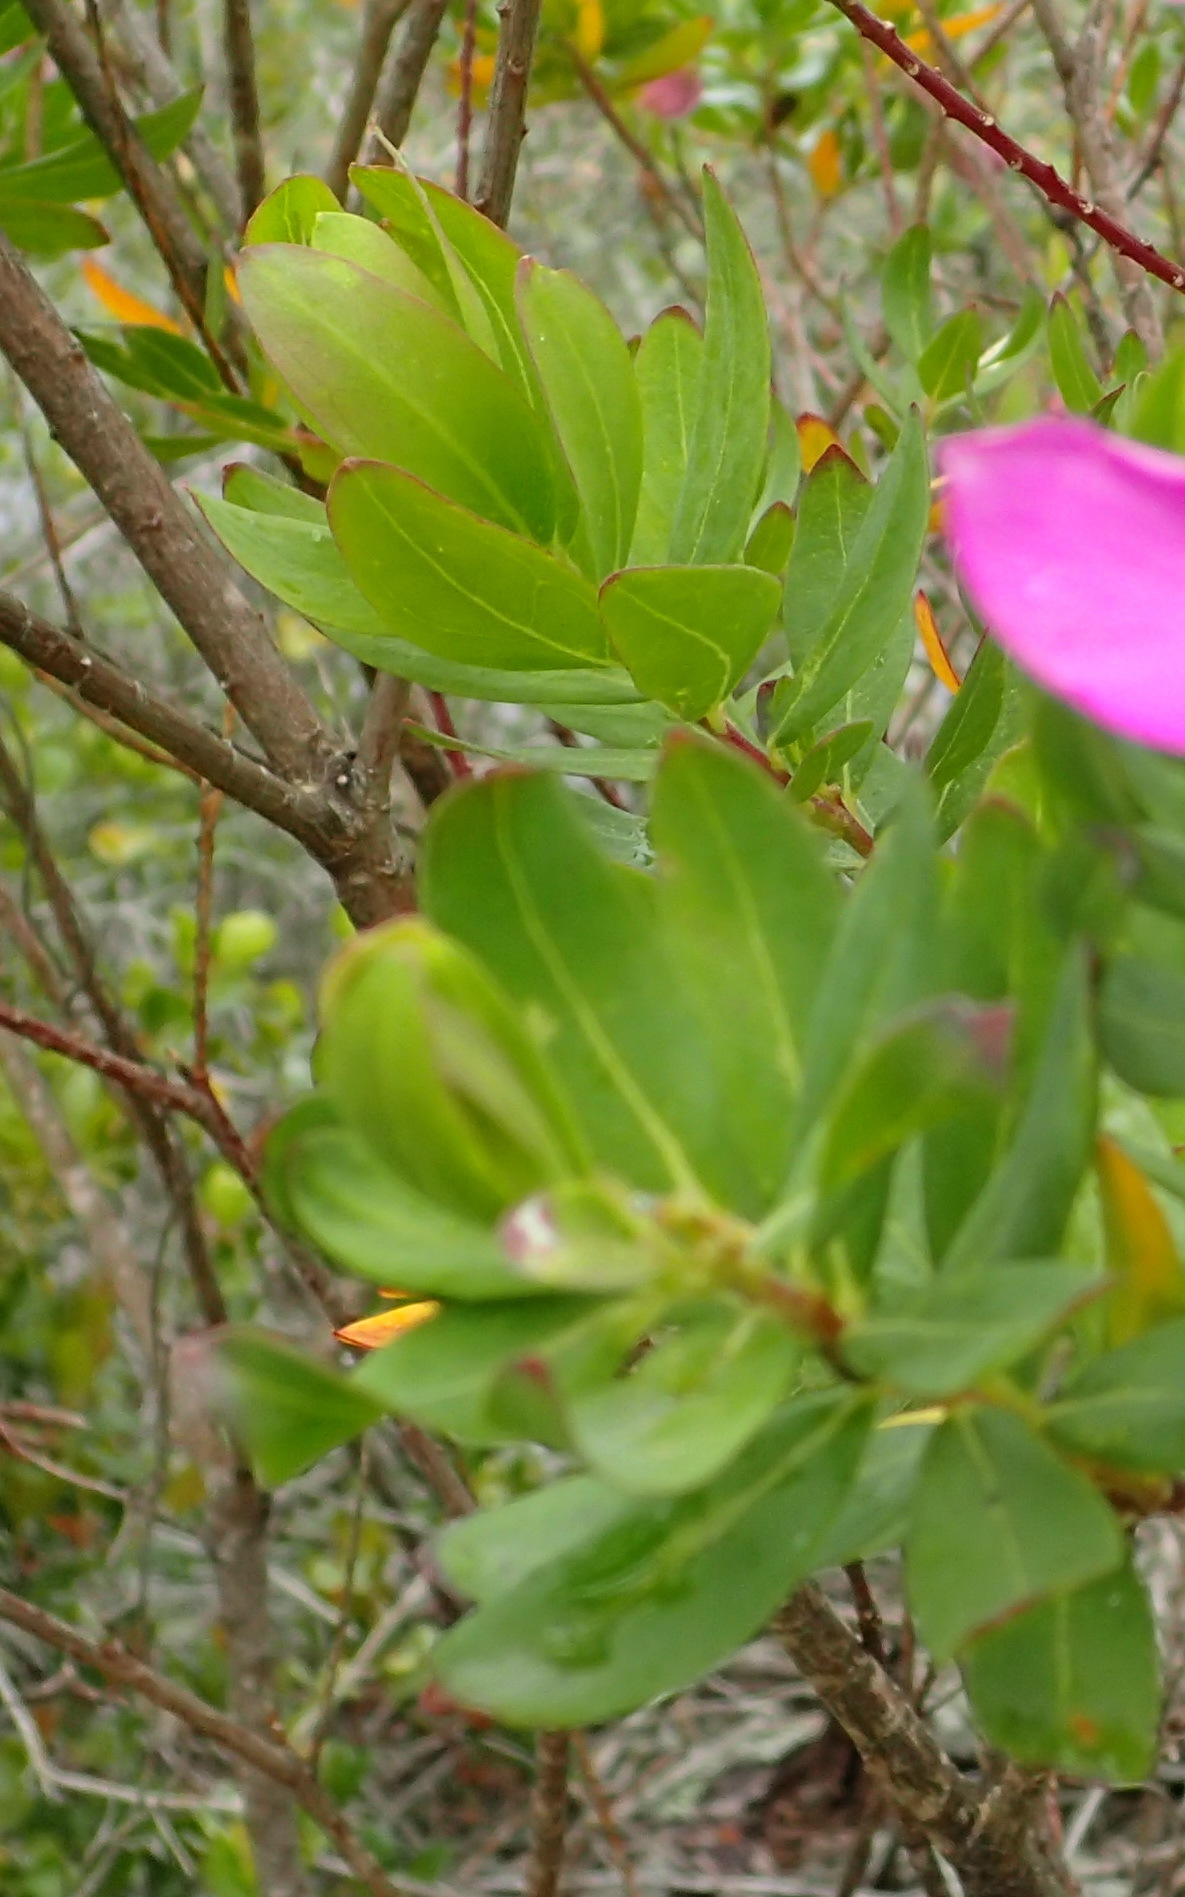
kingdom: Plantae
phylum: Tracheophyta
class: Magnoliopsida
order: Fabales
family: Polygalaceae
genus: Polygala
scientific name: Polygala myrtifolia
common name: Myrtle-leaf milkwort
